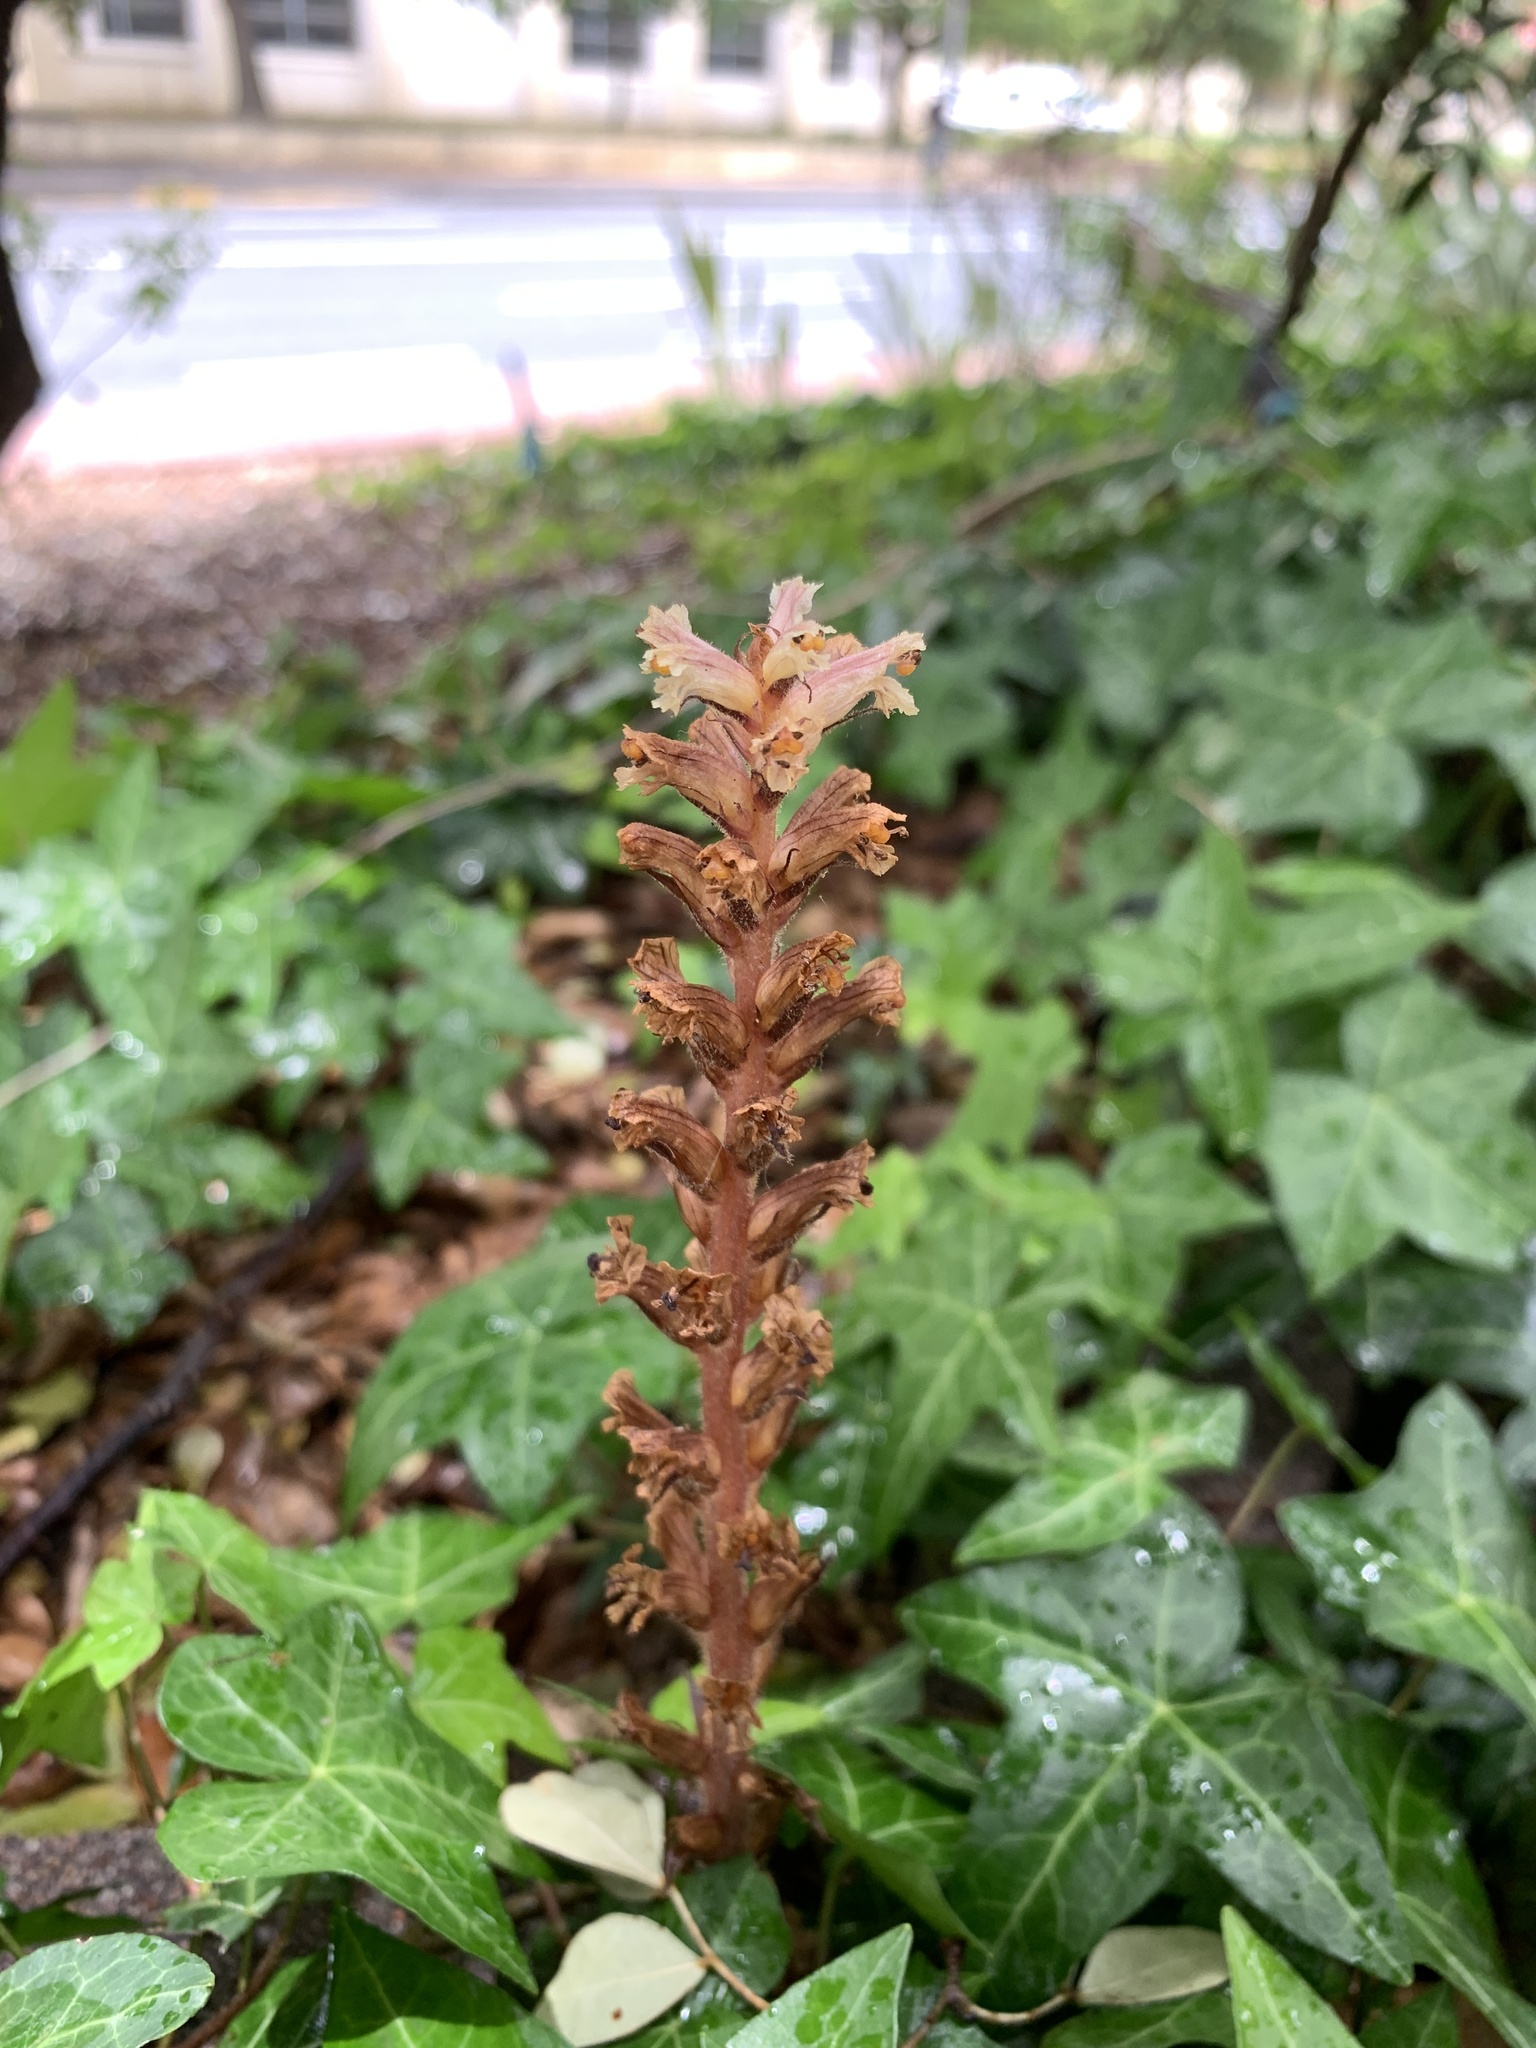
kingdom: Plantae
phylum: Tracheophyta
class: Magnoliopsida
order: Lamiales
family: Orobanchaceae
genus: Orobanche
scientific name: Orobanche hederae
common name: Ivy broomrape
